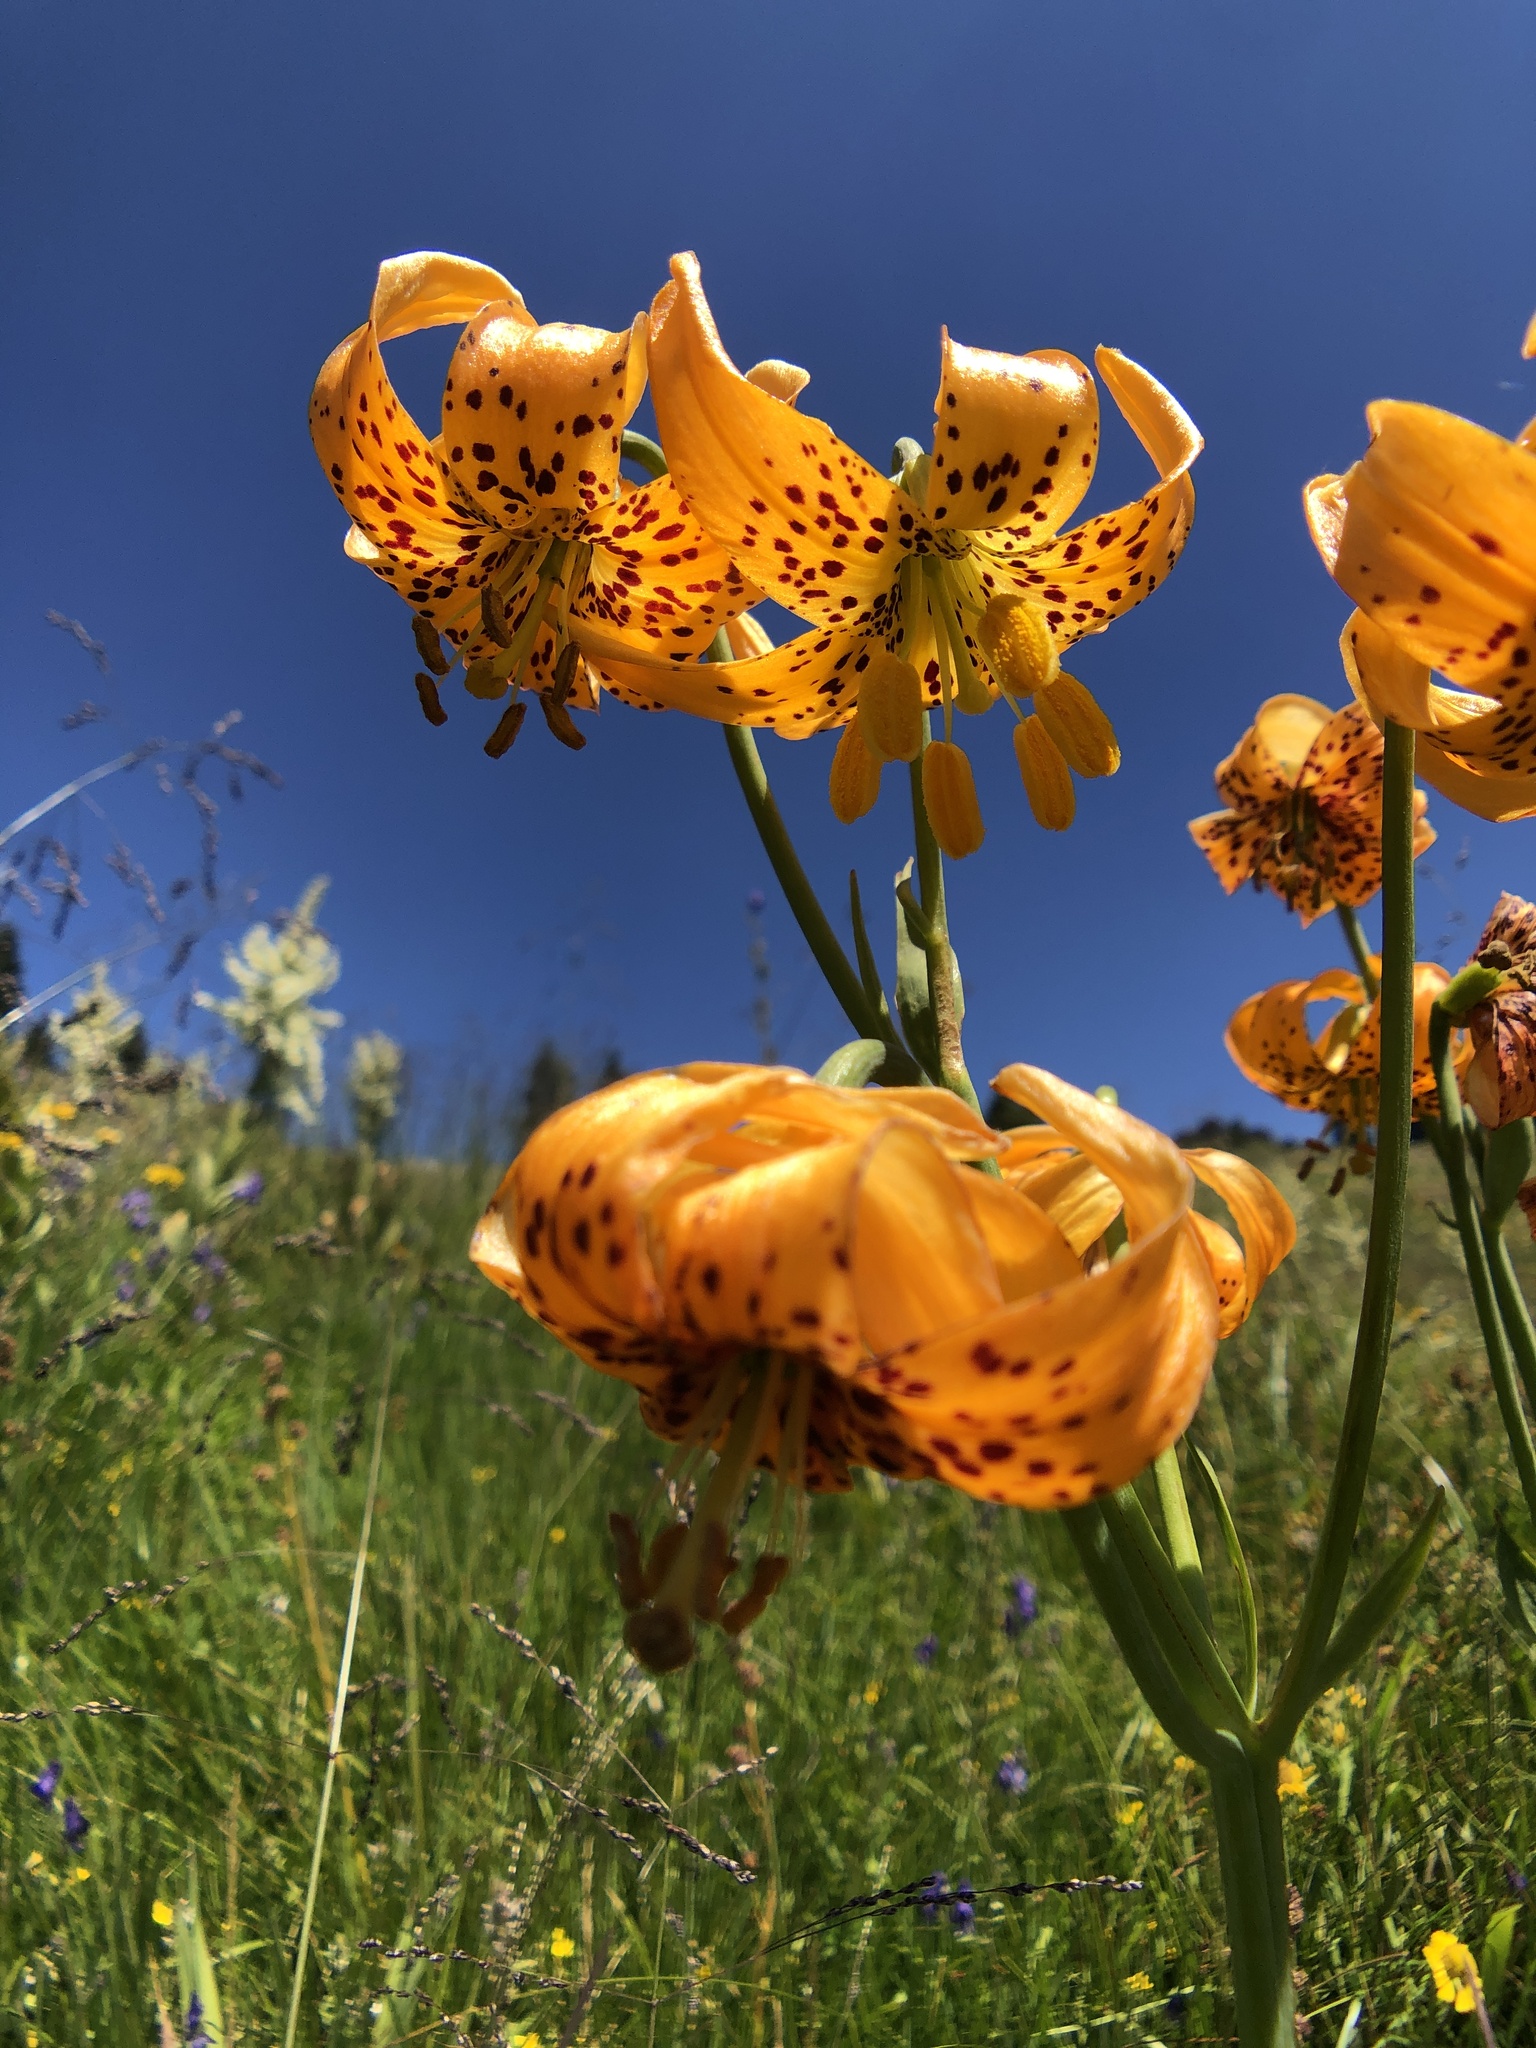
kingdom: Plantae
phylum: Tracheophyta
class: Liliopsida
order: Liliales
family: Liliaceae
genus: Lilium
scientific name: Lilium pardalinum
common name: Panther lily
